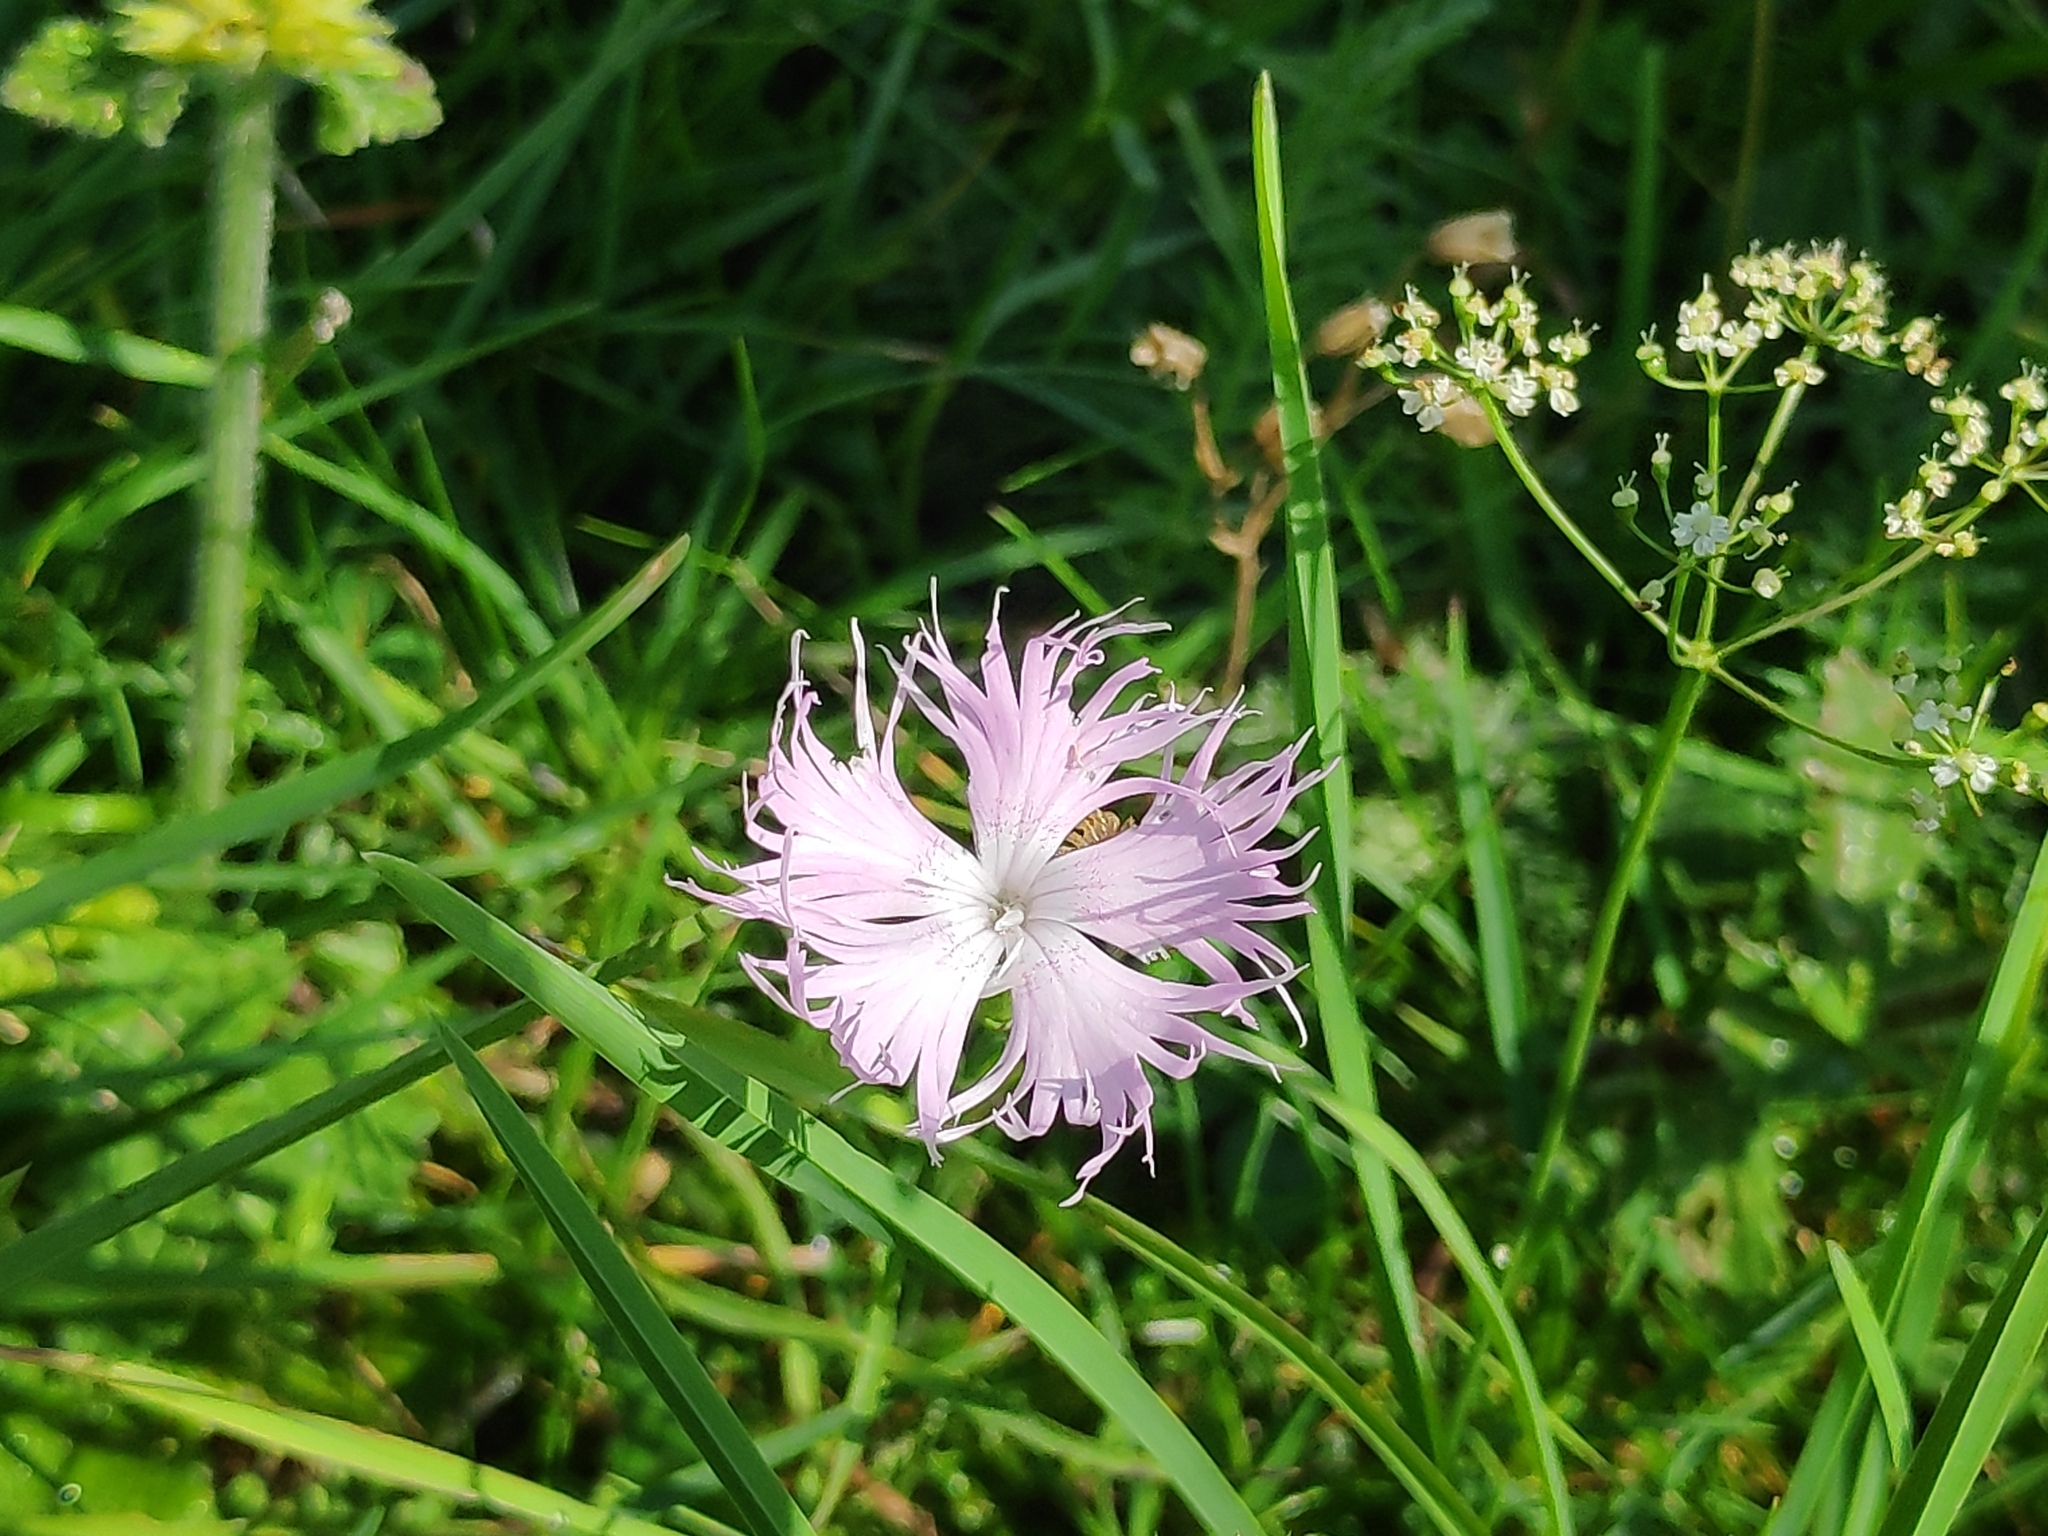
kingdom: Plantae
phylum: Tracheophyta
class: Magnoliopsida
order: Caryophyllales
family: Caryophyllaceae
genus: Dianthus
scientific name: Dianthus hyssopifolius
